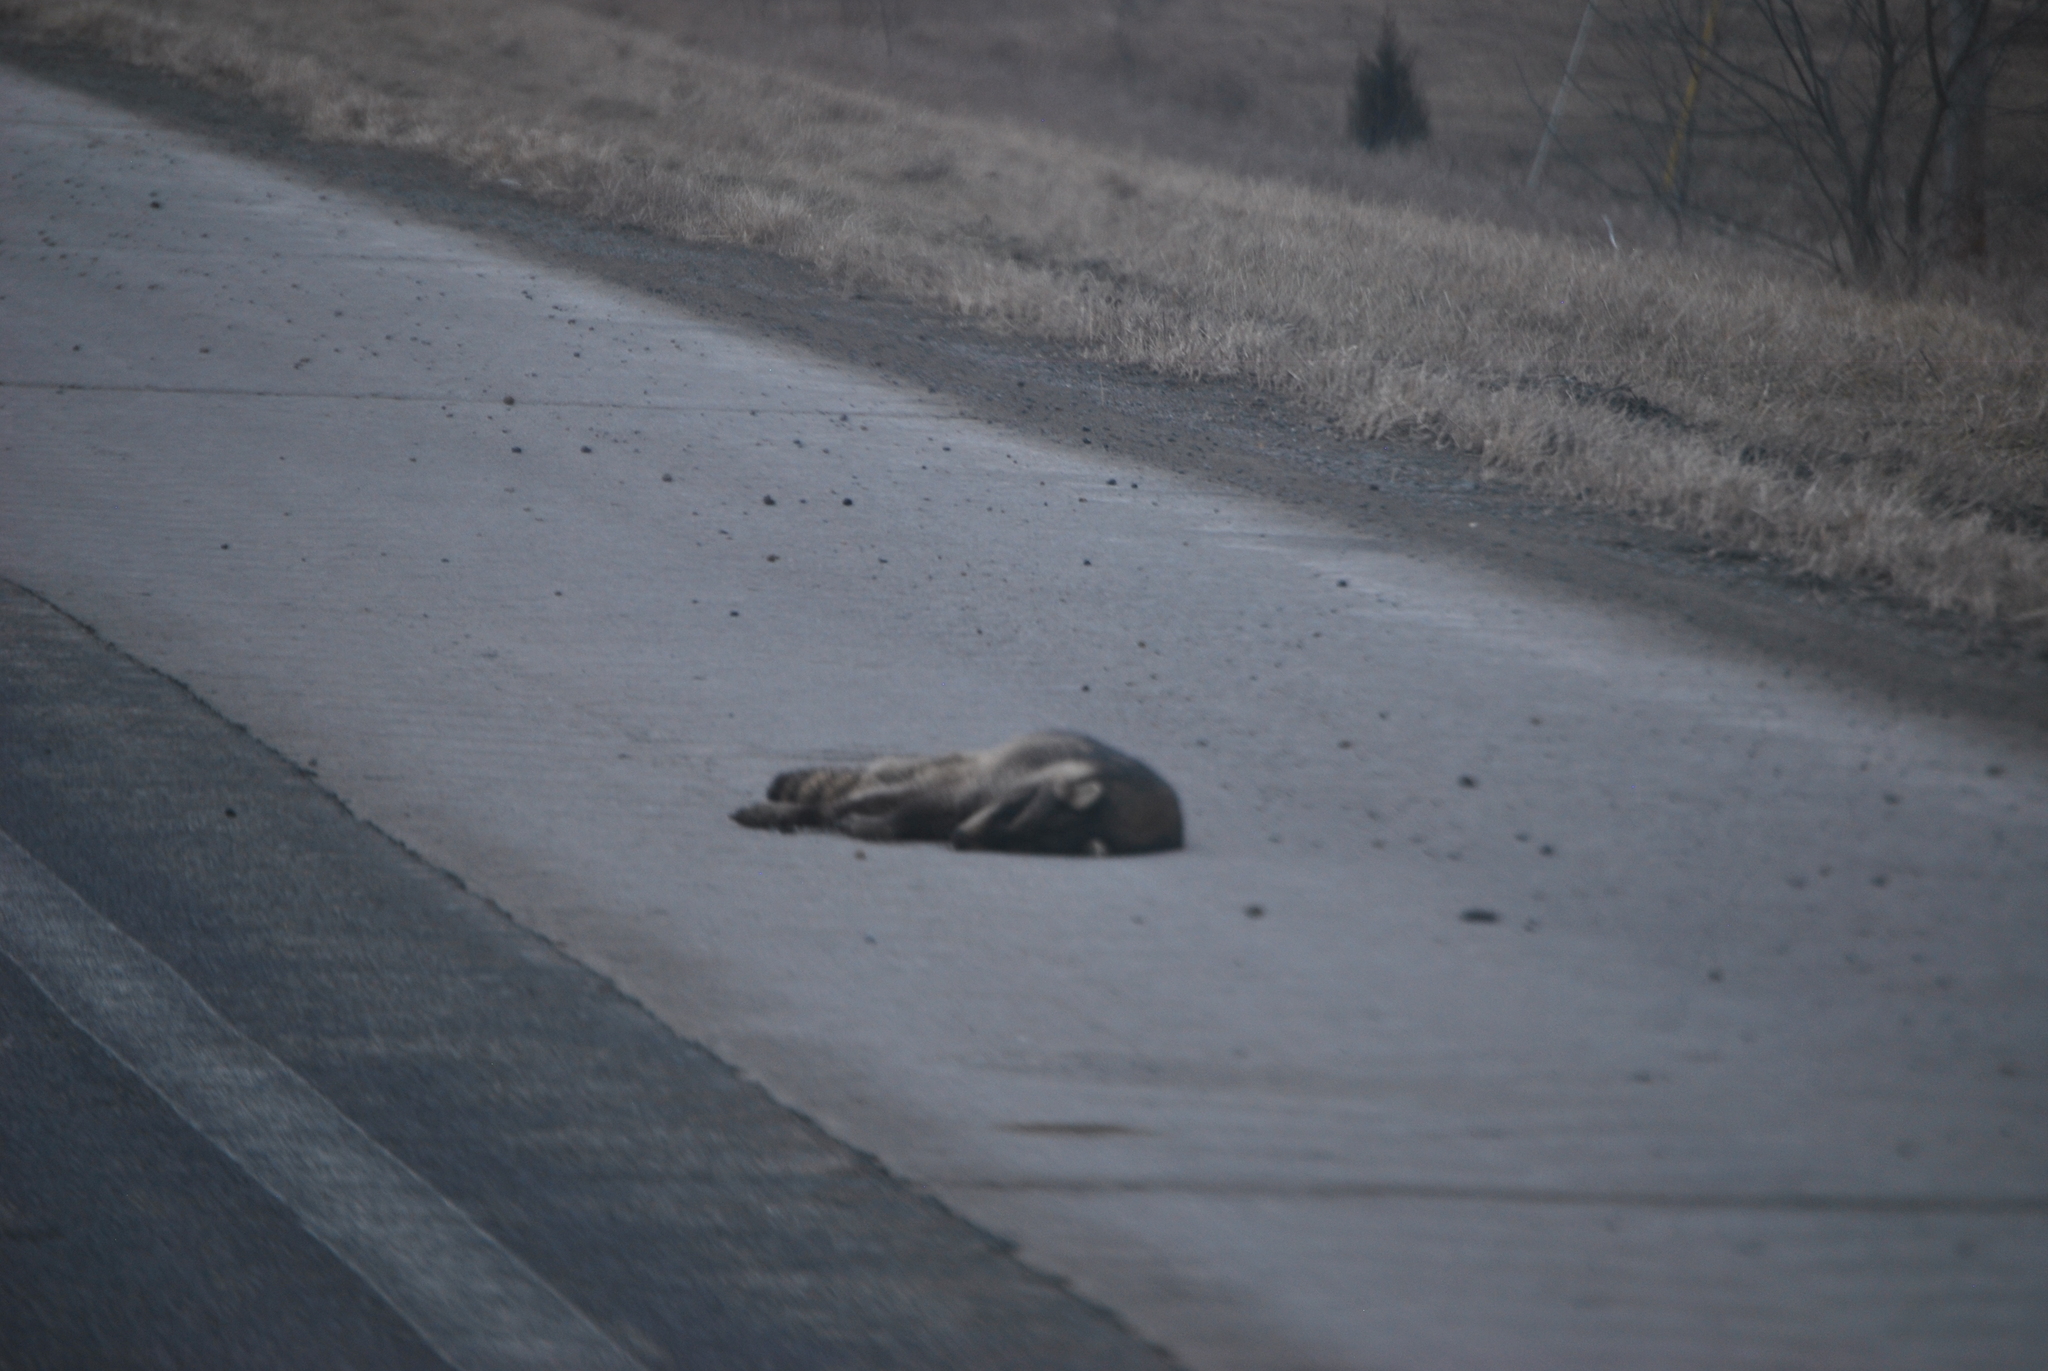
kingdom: Animalia
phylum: Chordata
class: Mammalia
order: Carnivora
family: Procyonidae
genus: Procyon
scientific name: Procyon lotor
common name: Raccoon
